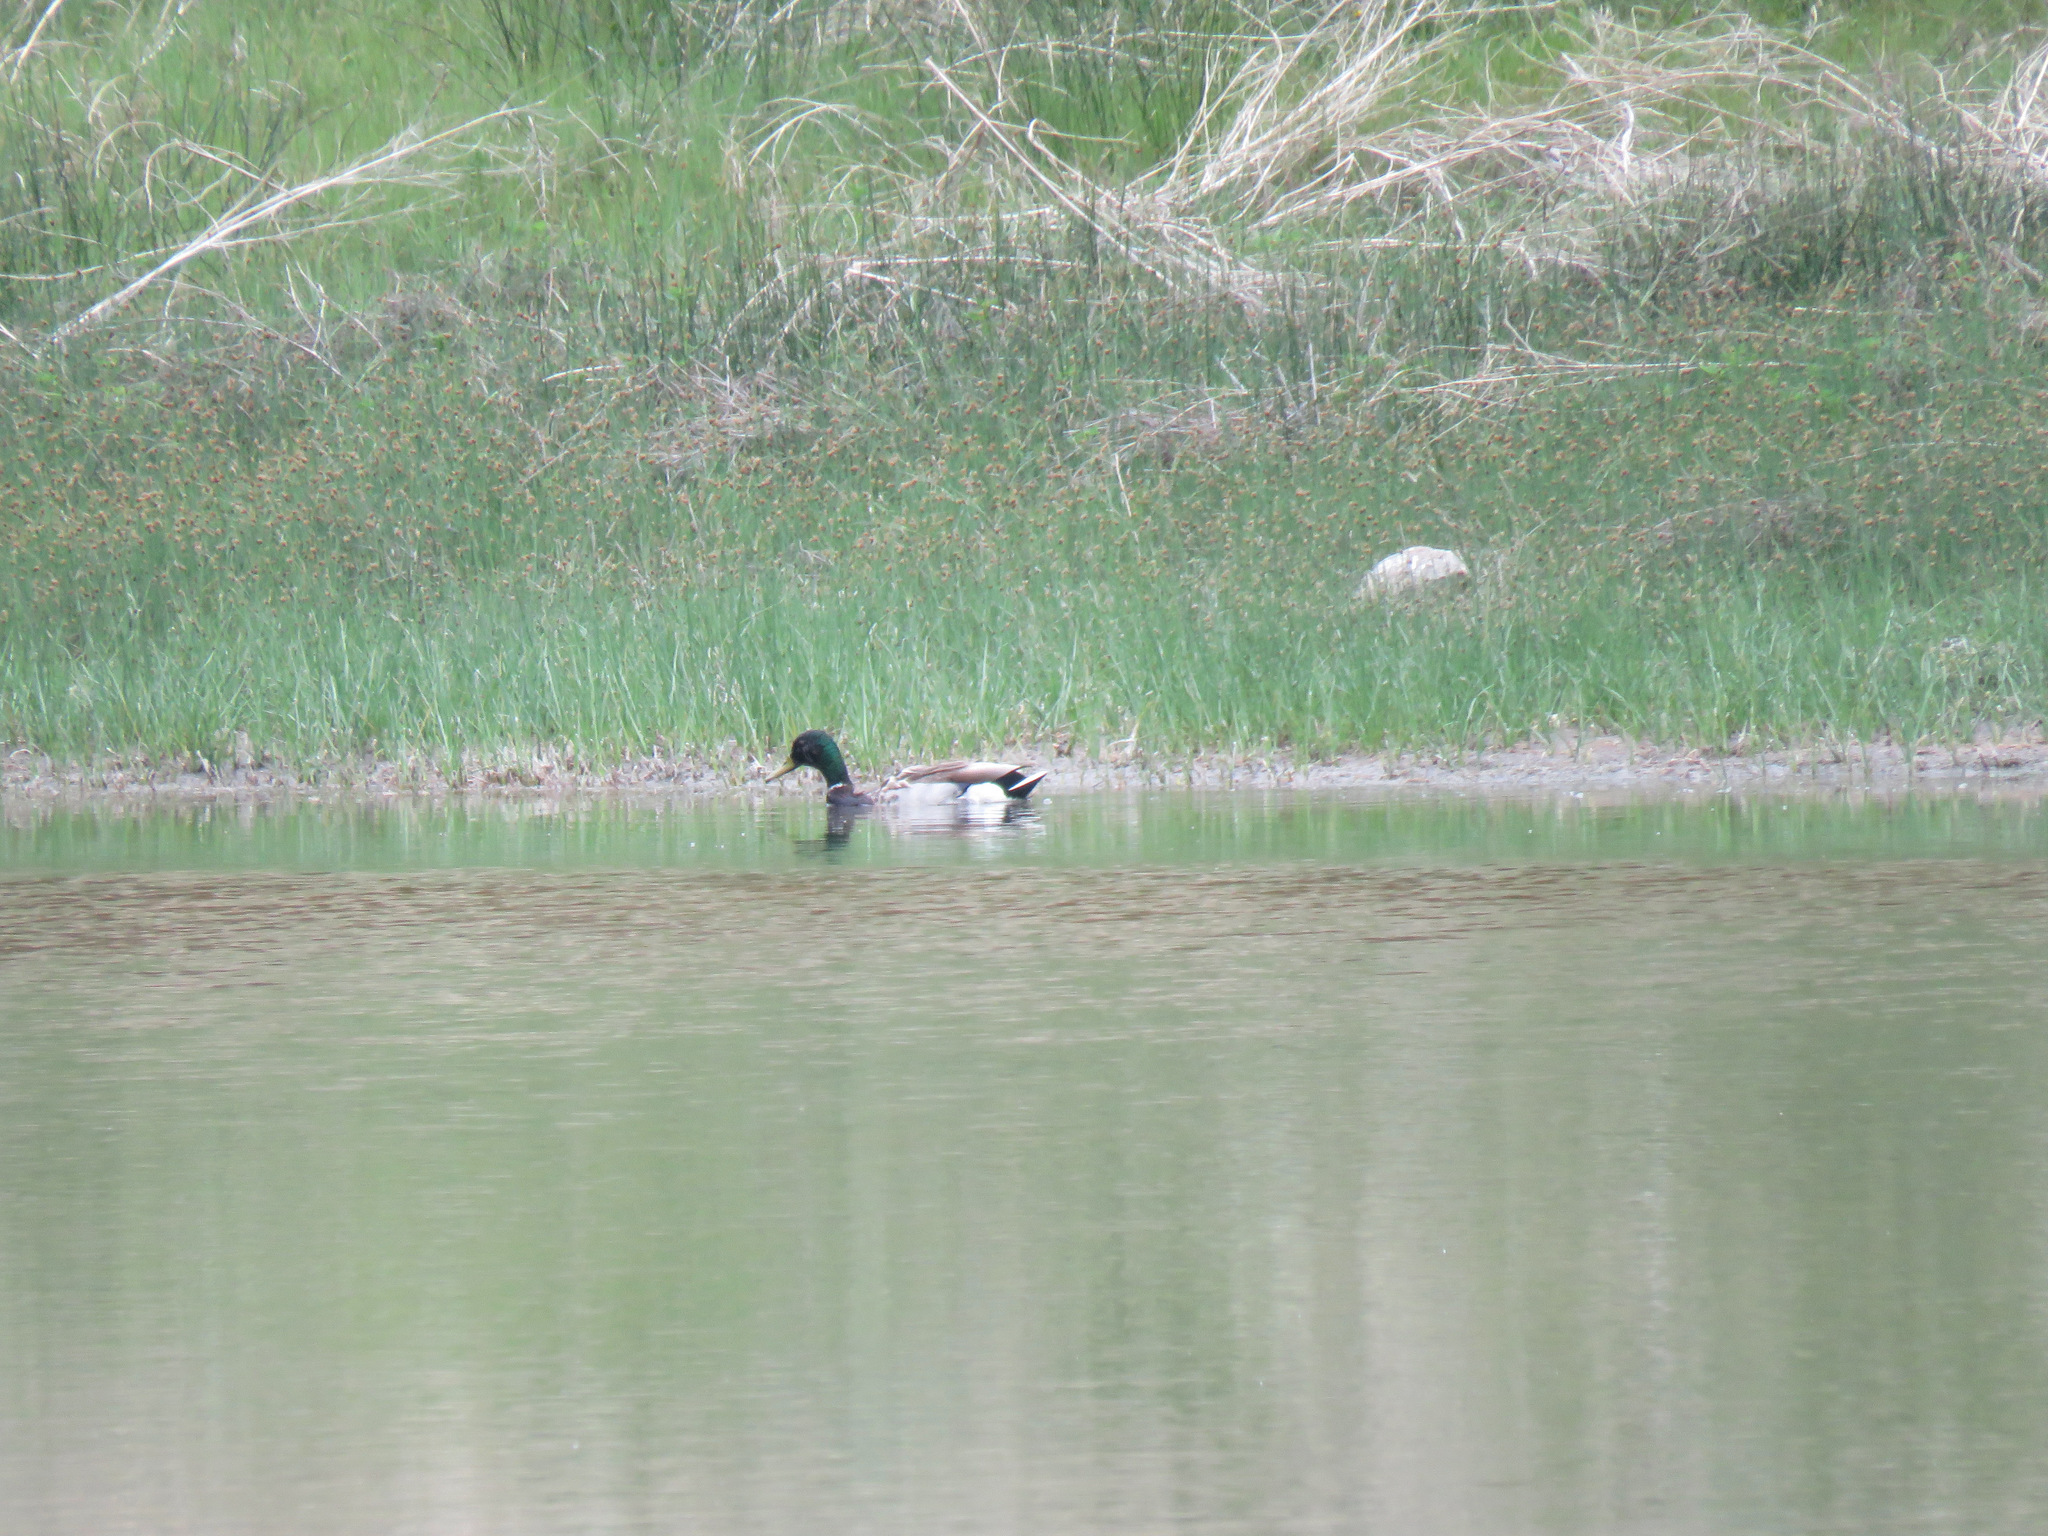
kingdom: Animalia
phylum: Chordata
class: Aves
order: Anseriformes
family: Anatidae
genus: Anas
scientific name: Anas platyrhynchos
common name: Mallard
